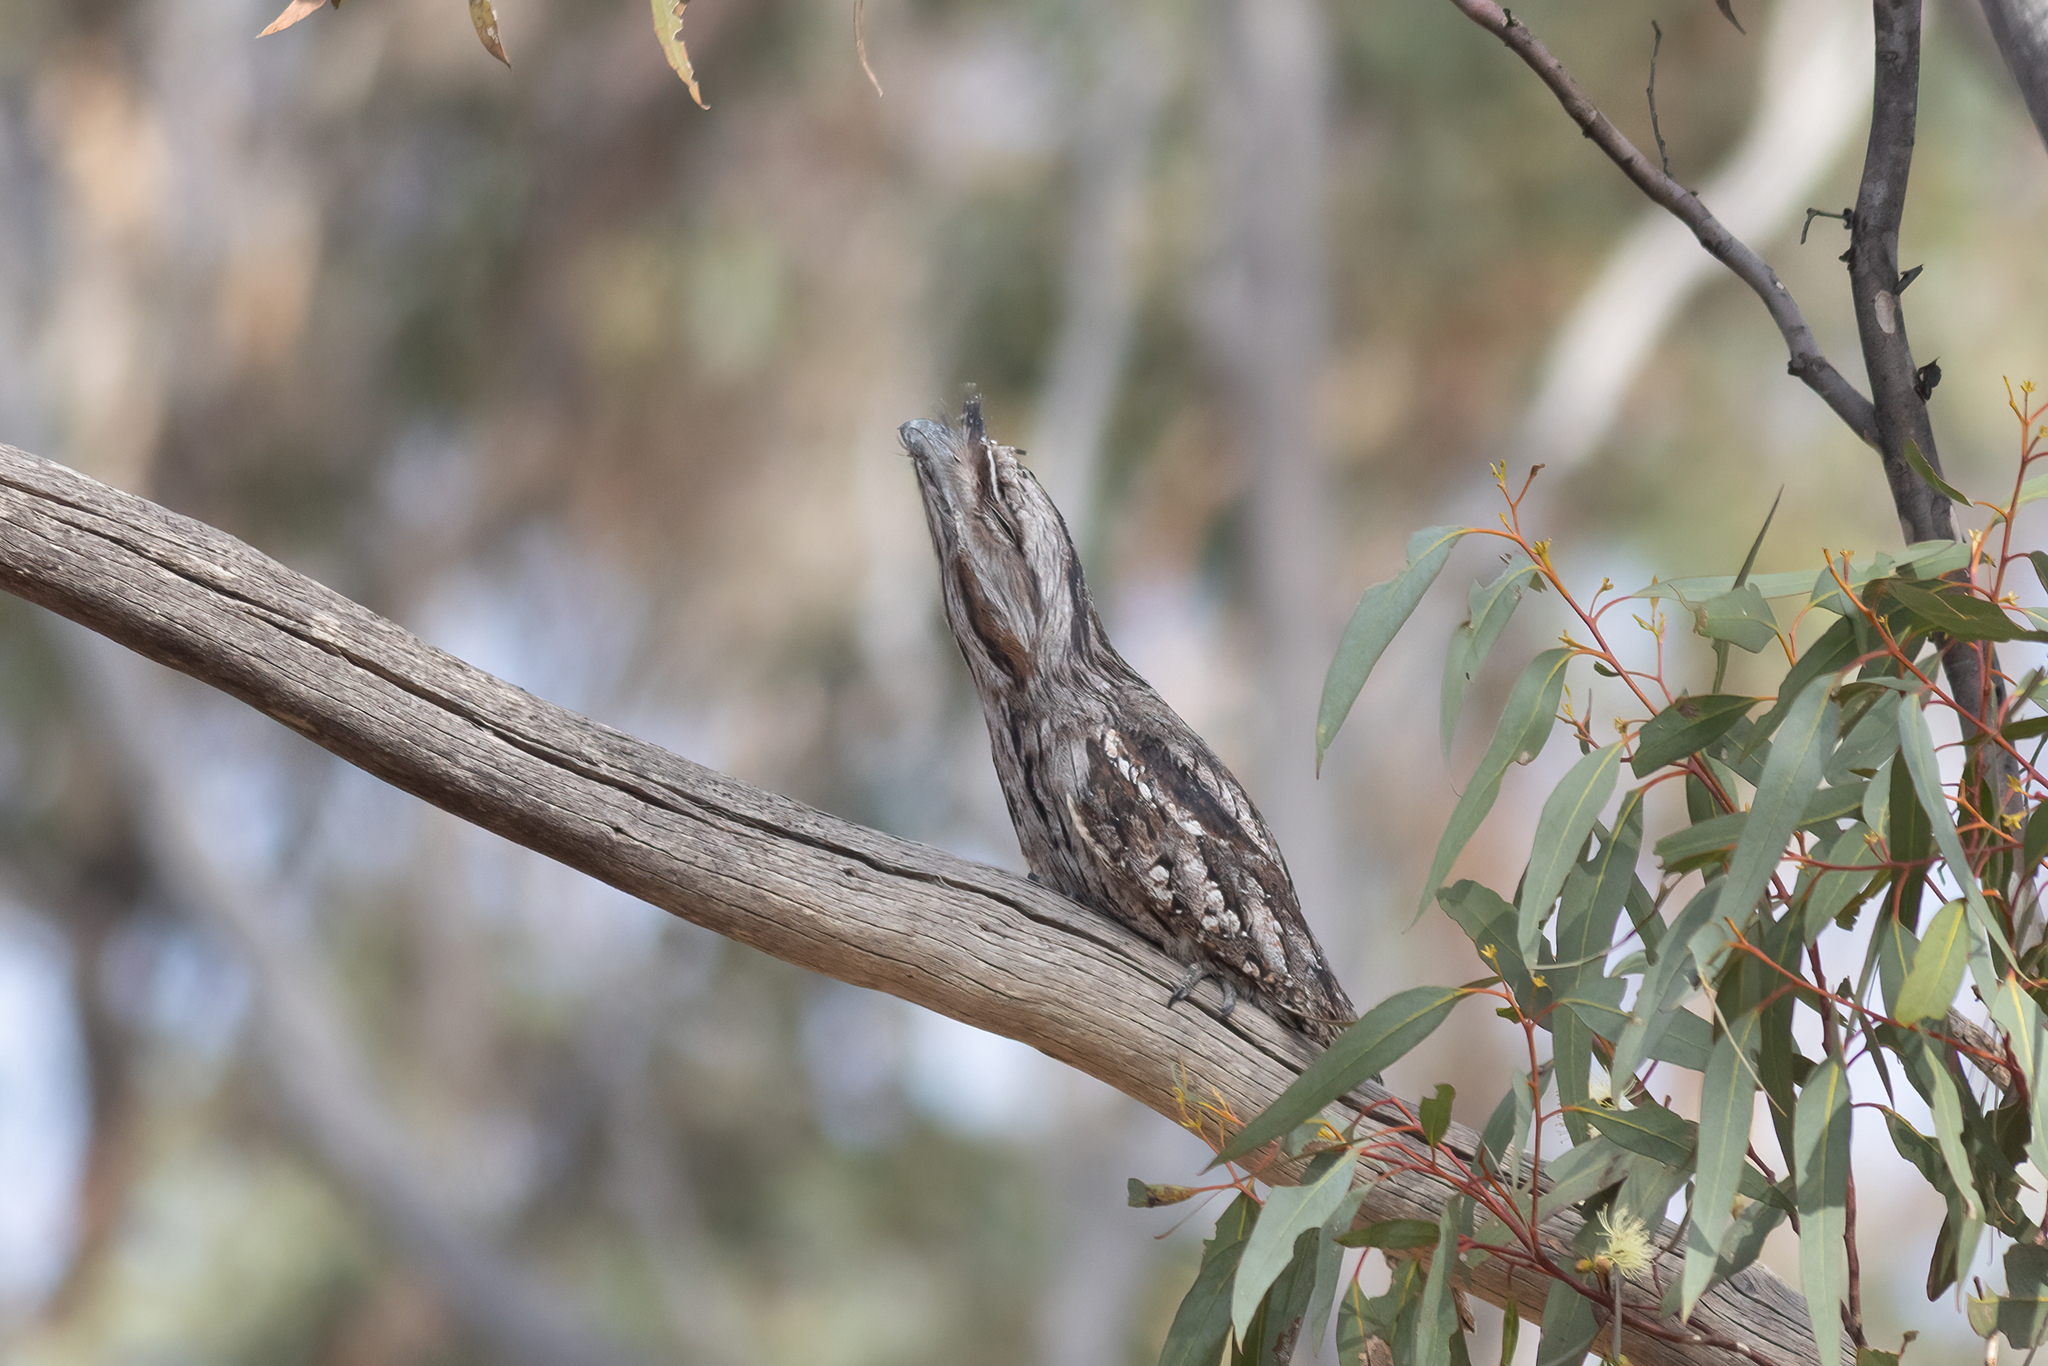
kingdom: Animalia
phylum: Chordata
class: Aves
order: Caprimulgiformes
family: Podargidae
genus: Podargus
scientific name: Podargus strigoides
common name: Tawny frogmouth
